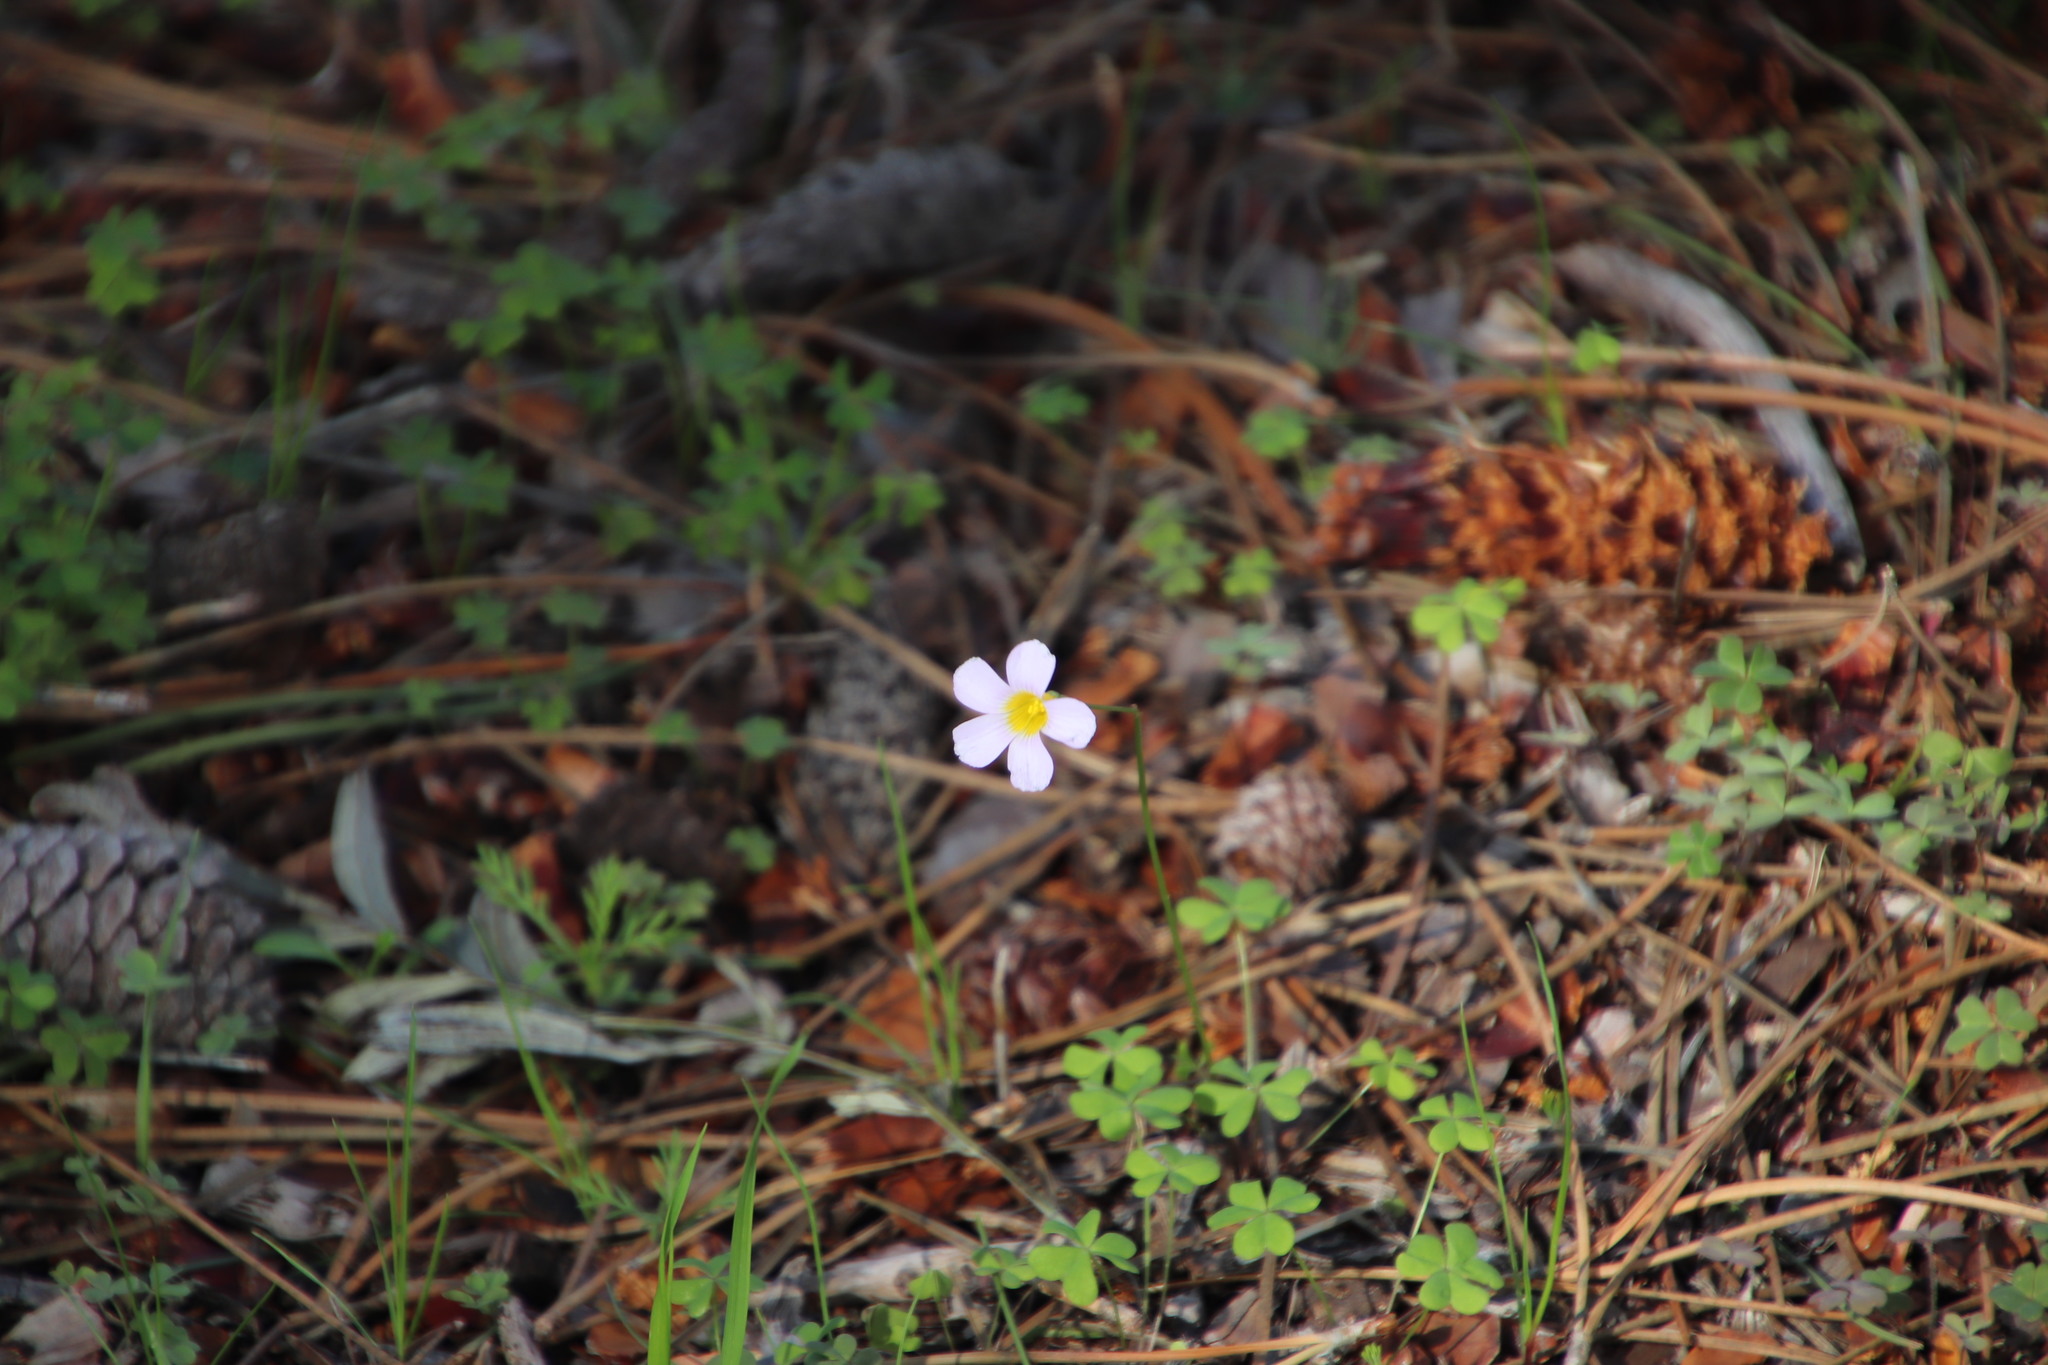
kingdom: Plantae
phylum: Tracheophyta
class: Magnoliopsida
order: Oxalidales
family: Oxalidaceae
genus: Oxalis
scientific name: Oxalis caprina
